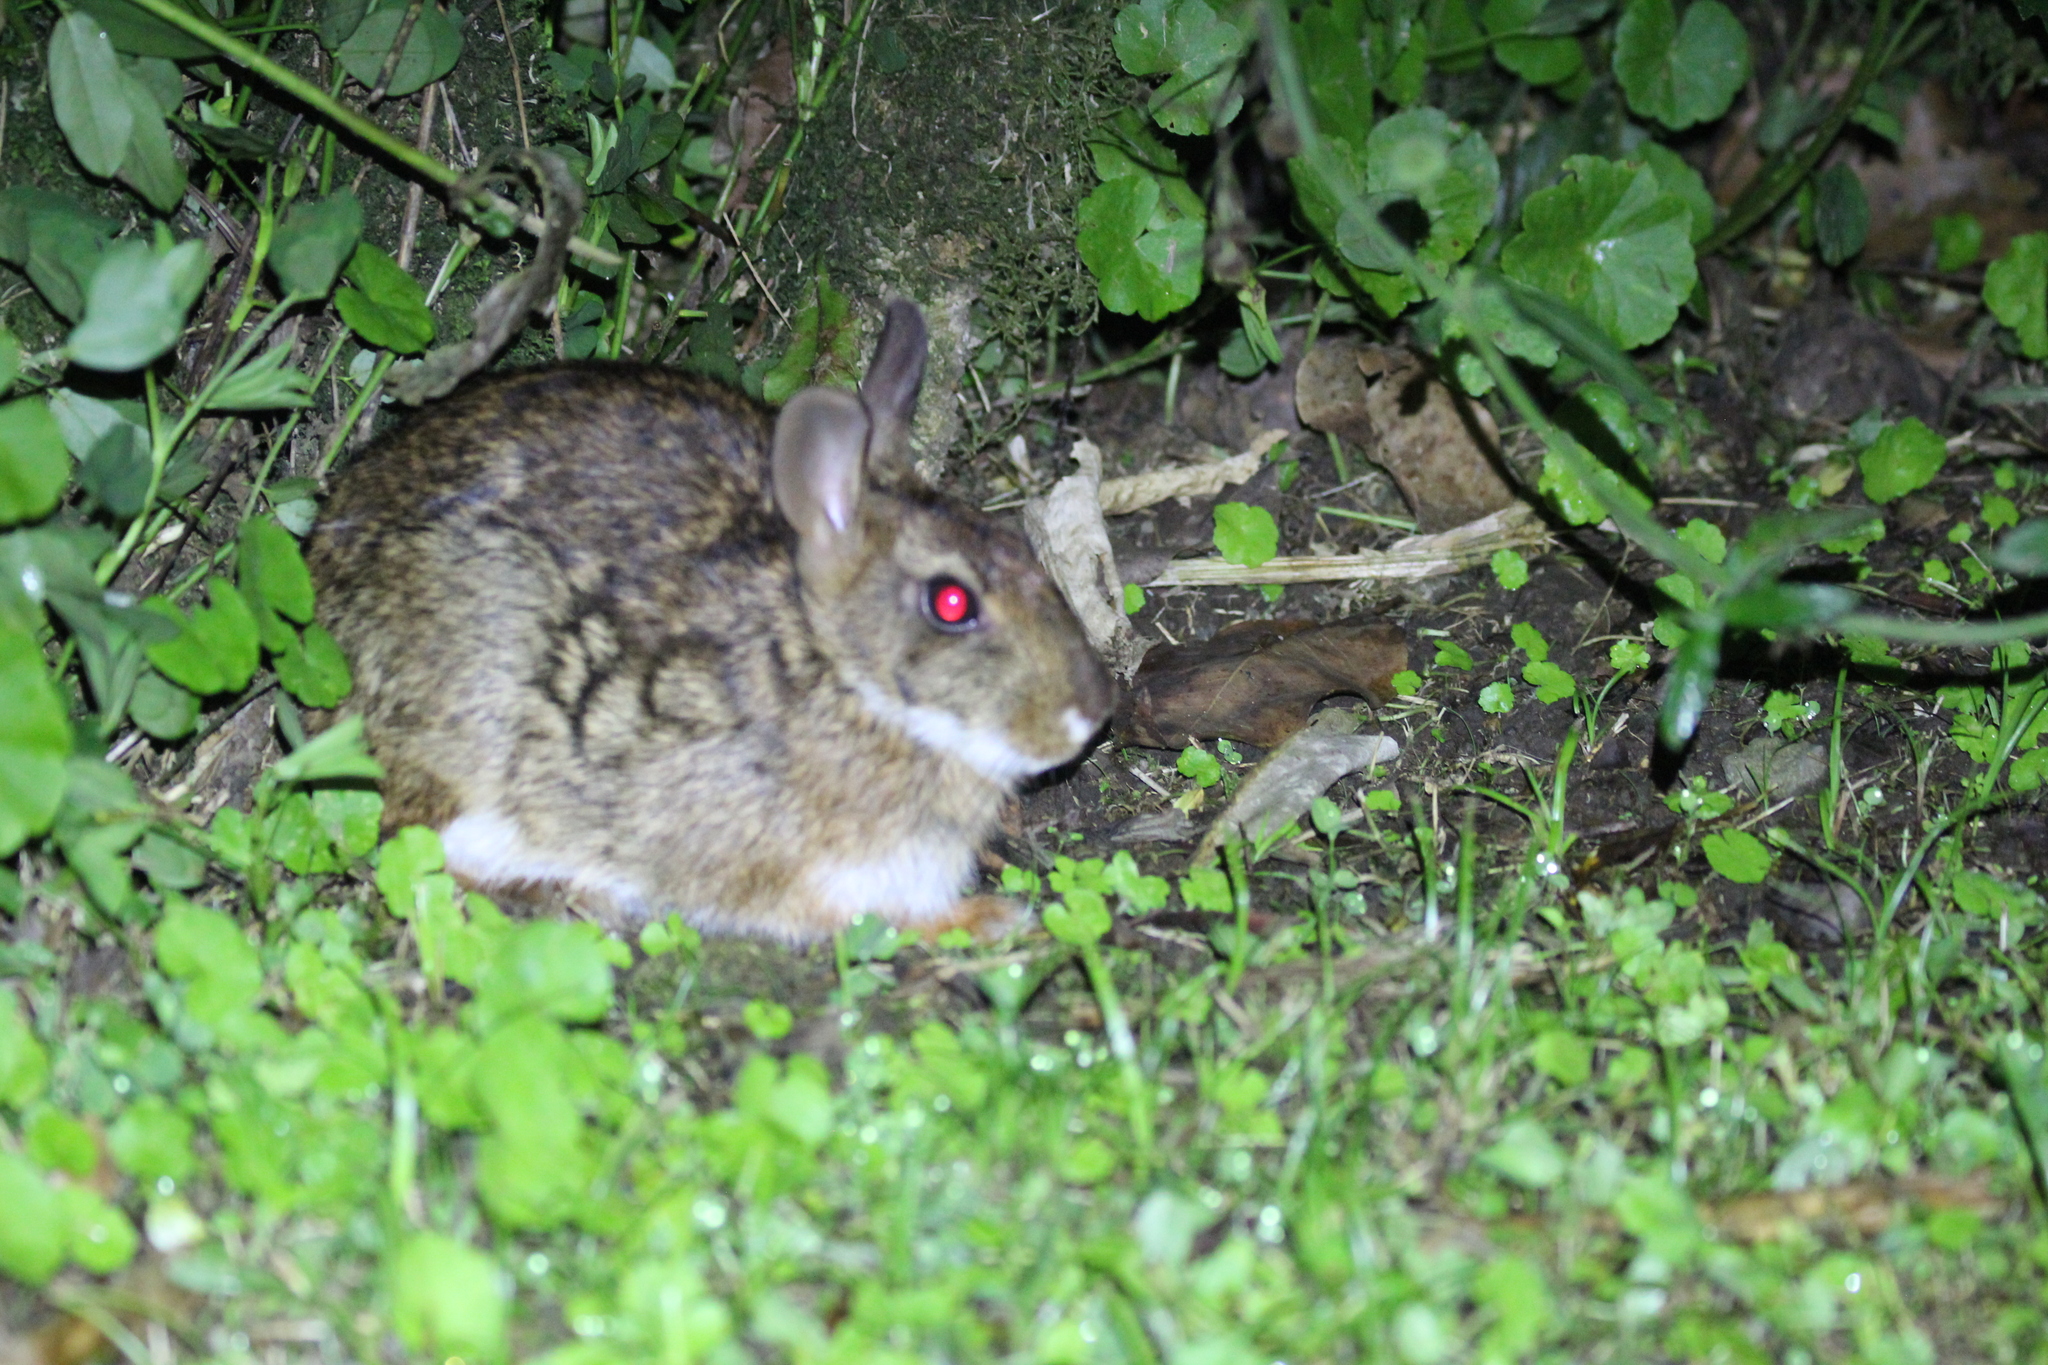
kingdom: Animalia
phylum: Chordata
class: Mammalia
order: Lagomorpha
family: Leporidae
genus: Sylvilagus
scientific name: Sylvilagus gabbi
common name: Gabb's cottontail
